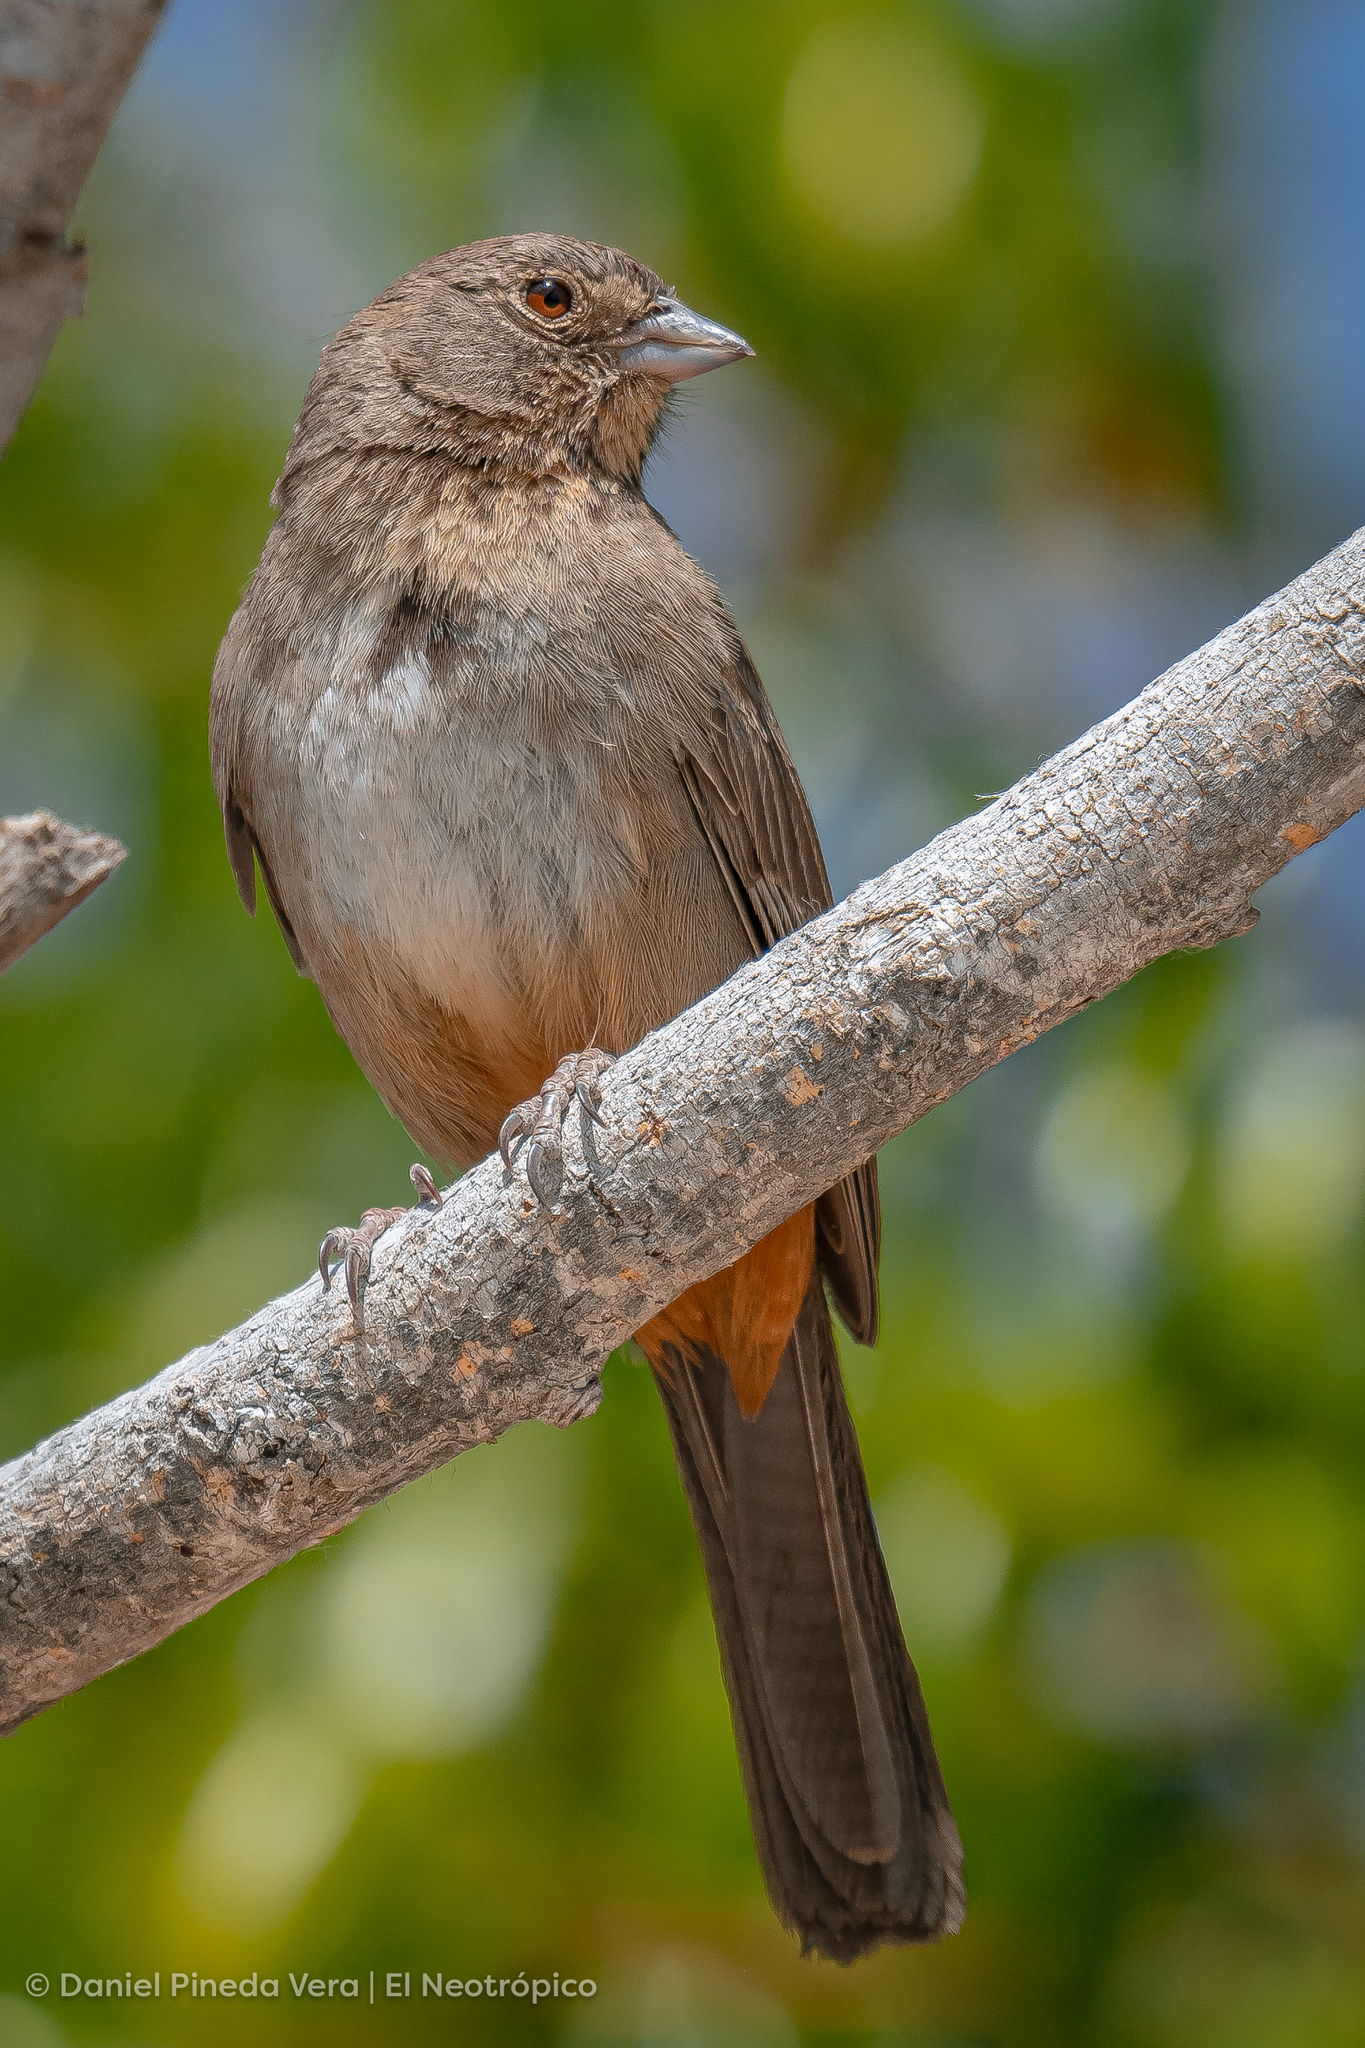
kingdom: Animalia
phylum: Chordata
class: Aves
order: Passeriformes
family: Passerellidae
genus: Melozone
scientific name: Melozone fusca
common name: Canyon towhee
